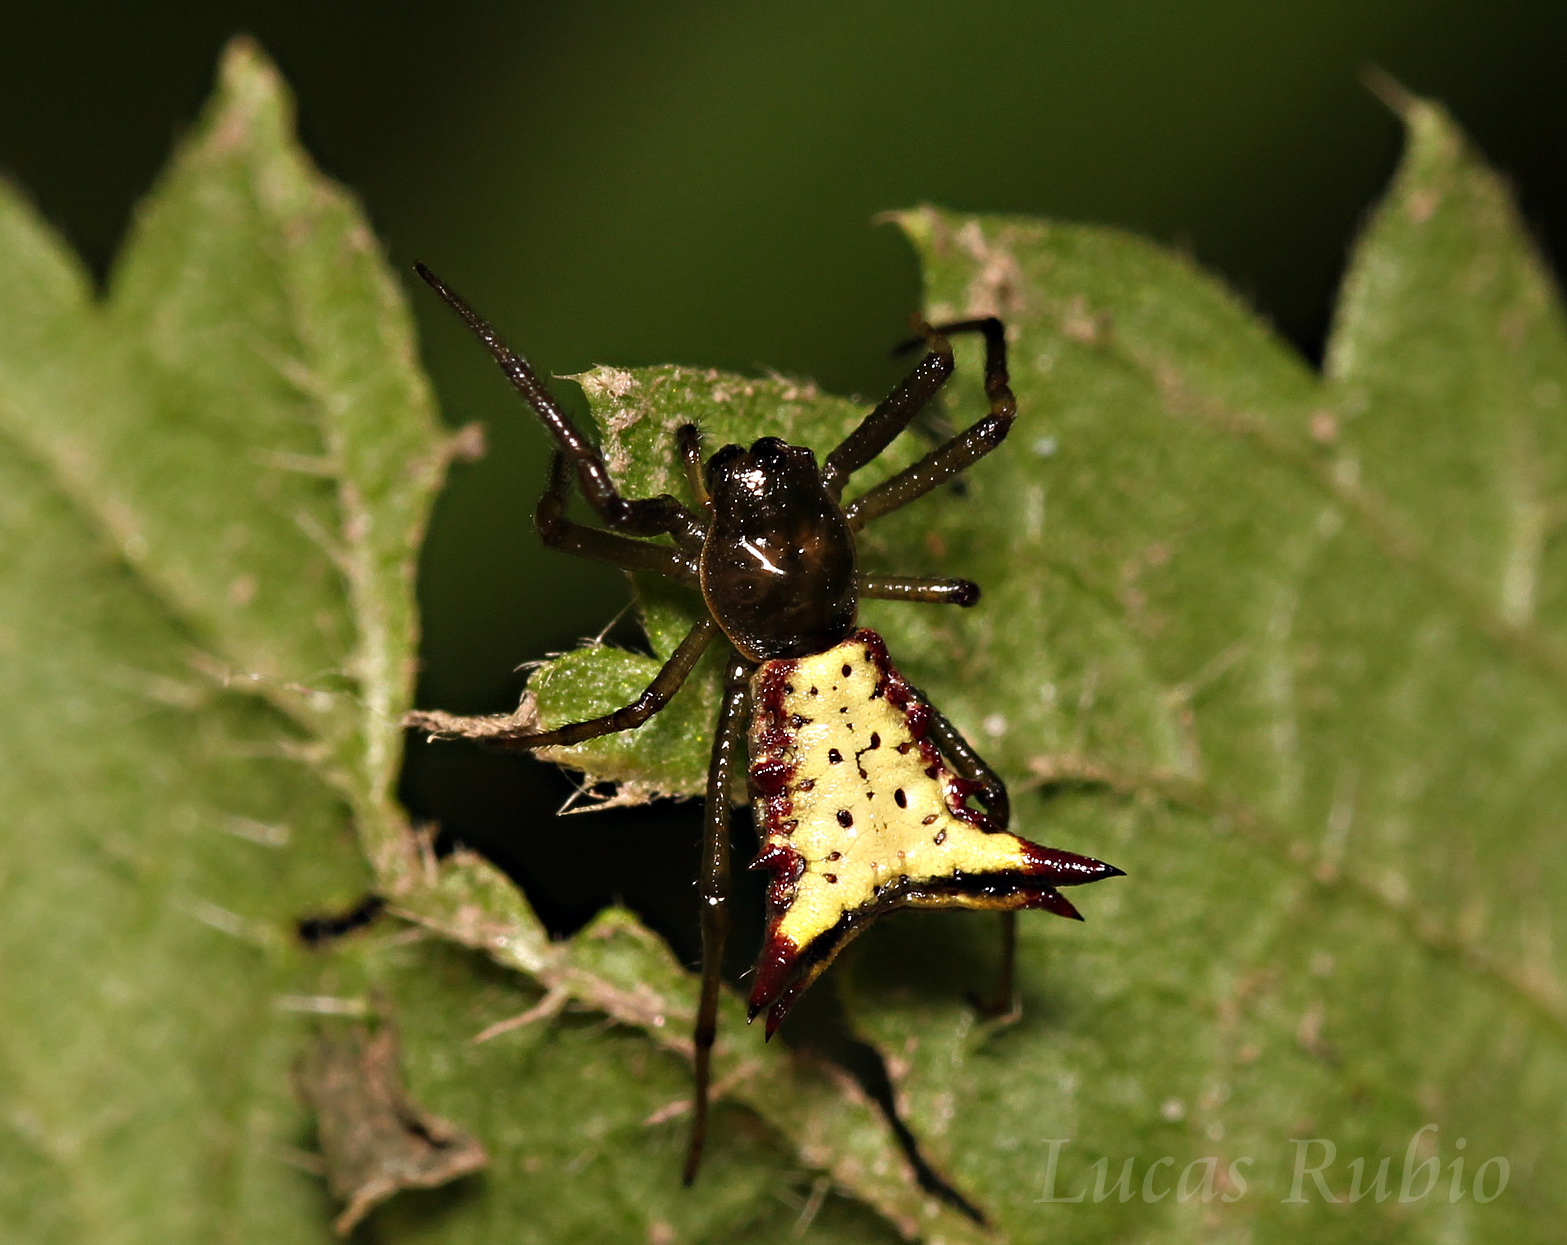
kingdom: Animalia
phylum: Arthropoda
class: Arachnida
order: Araneae
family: Araneidae
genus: Micrathena
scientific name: Micrathena furva
